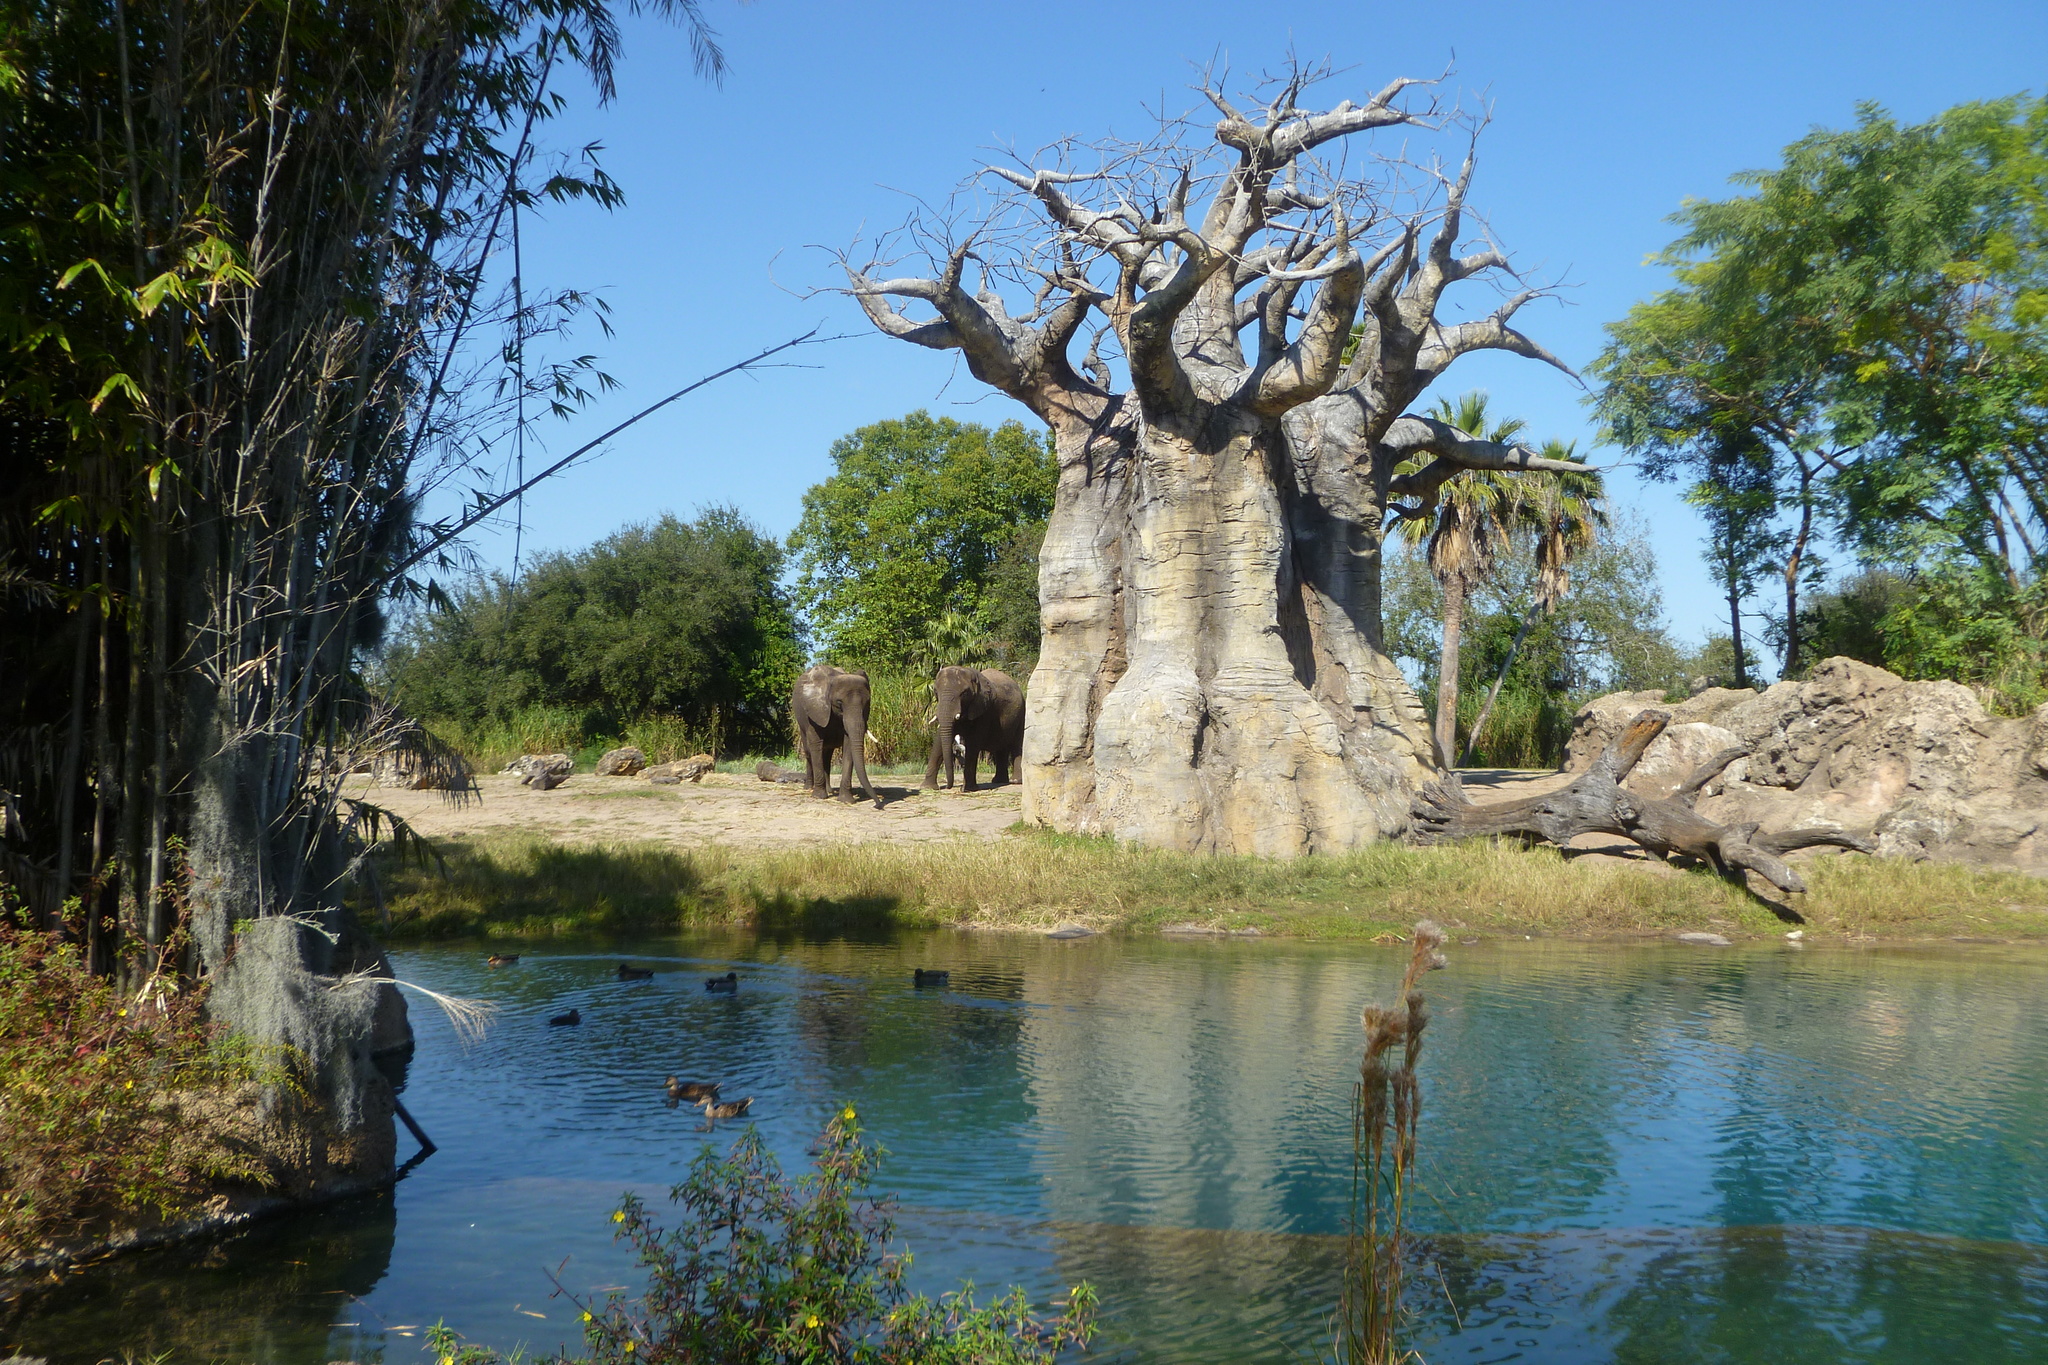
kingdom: Animalia
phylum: Chordata
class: Aves
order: Anseriformes
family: Anatidae
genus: Anas
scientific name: Anas platyrhynchos
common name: Mallard
